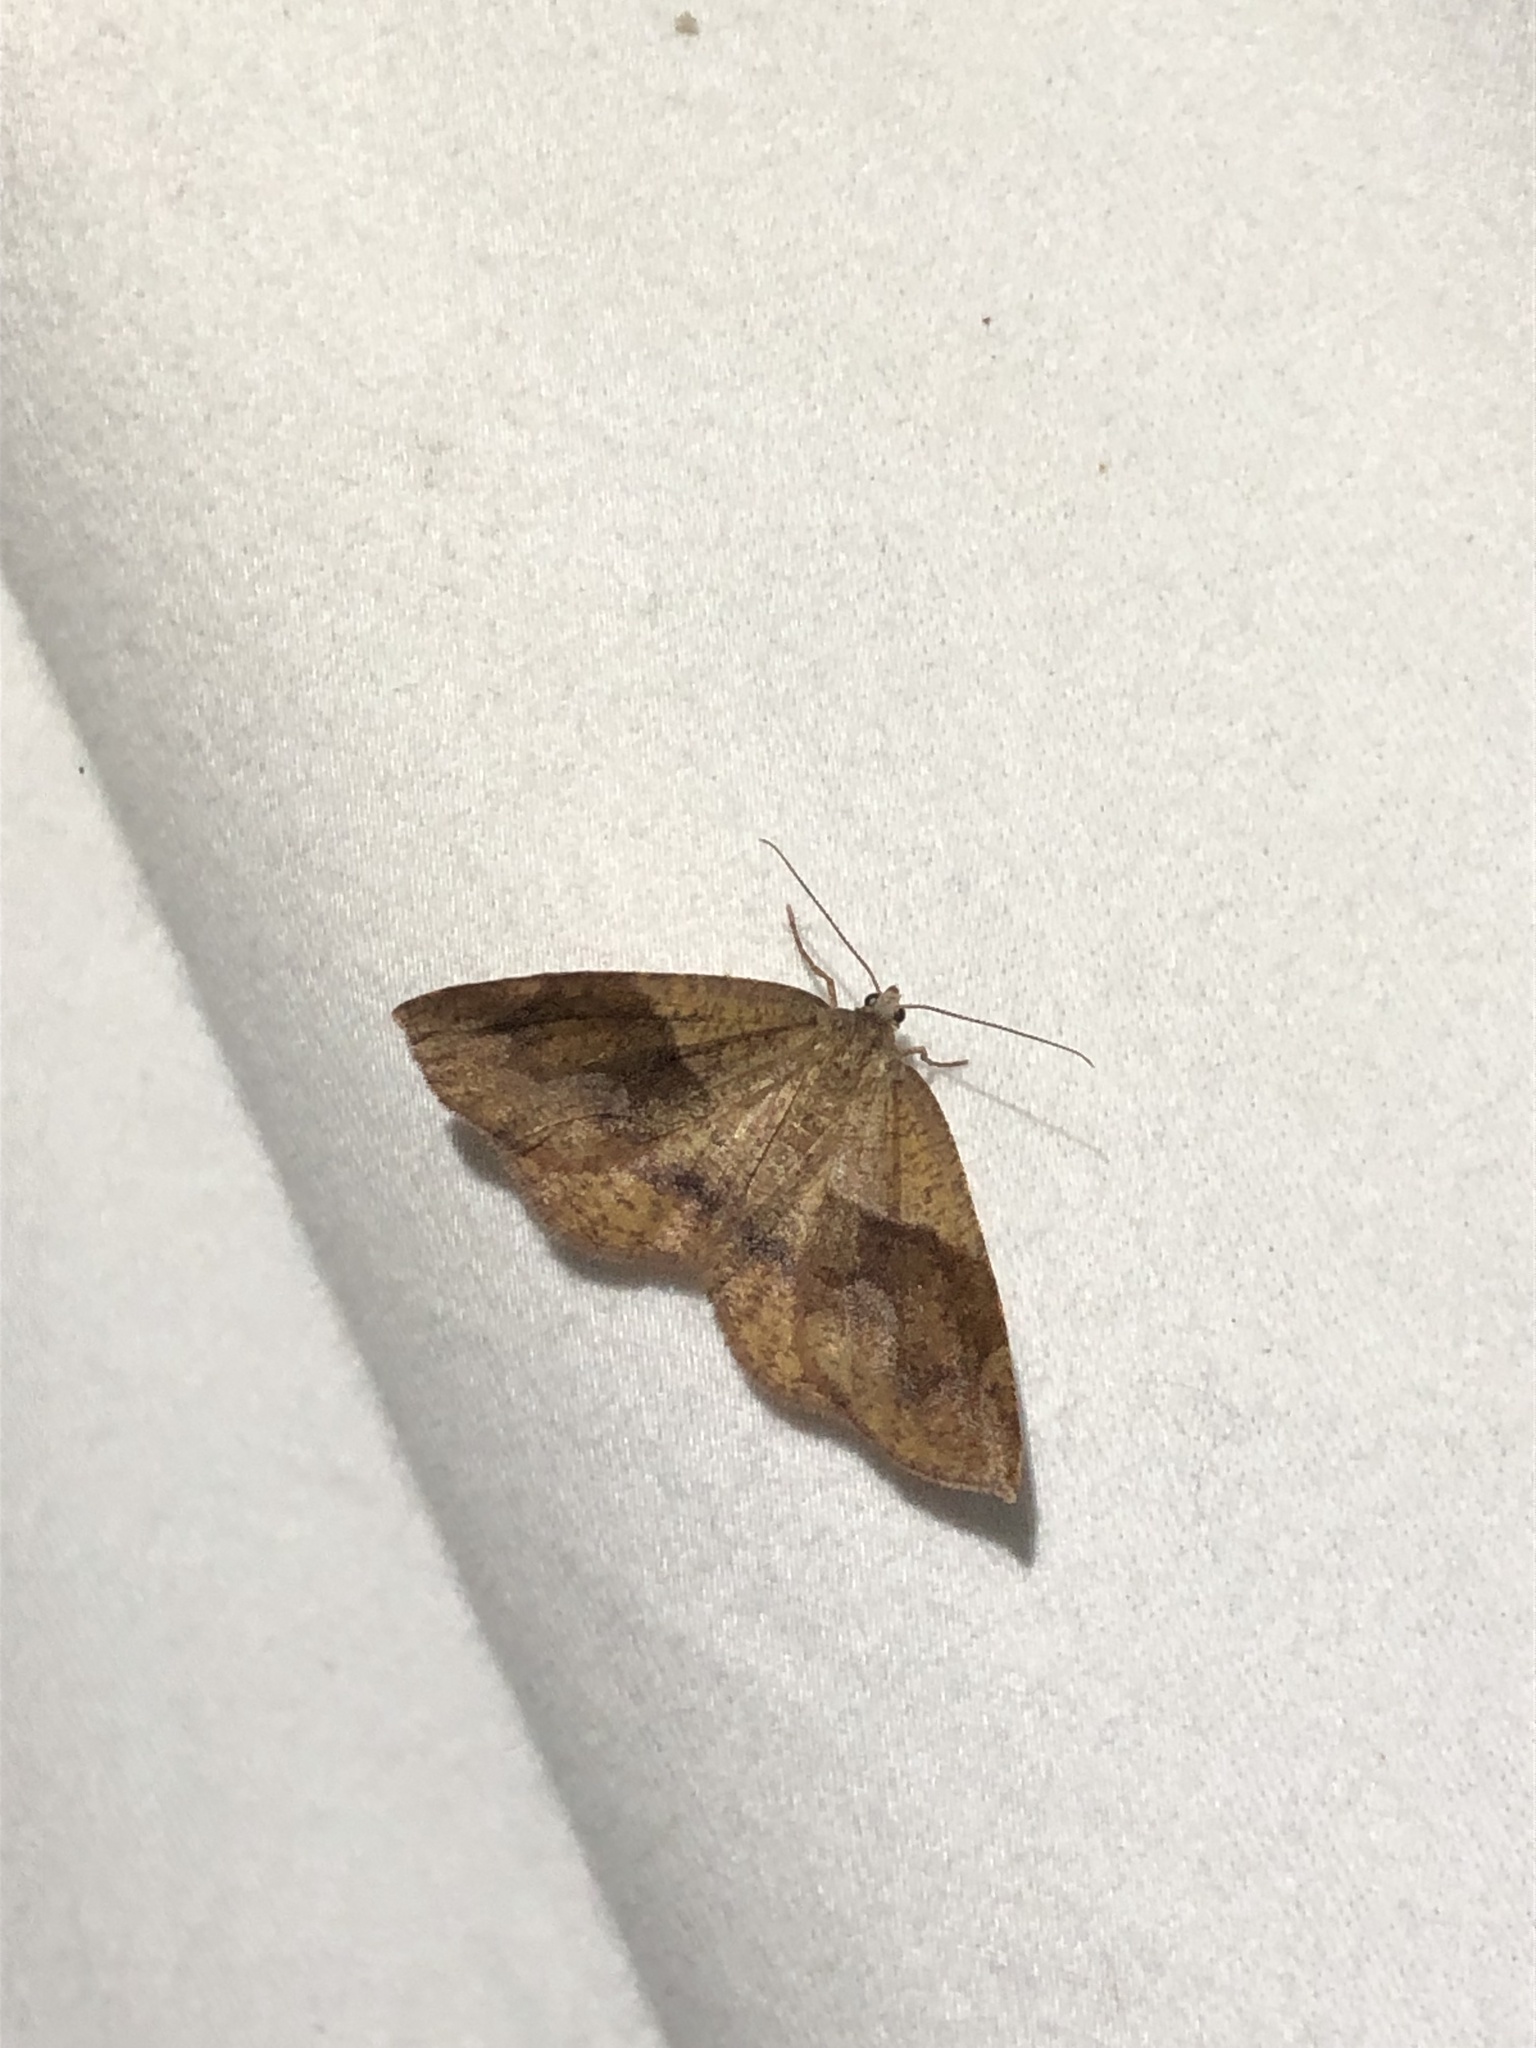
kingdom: Animalia
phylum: Arthropoda
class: Insecta
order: Lepidoptera
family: Geometridae
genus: Plagodis
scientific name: Plagodis pulveraria
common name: Barred umber
